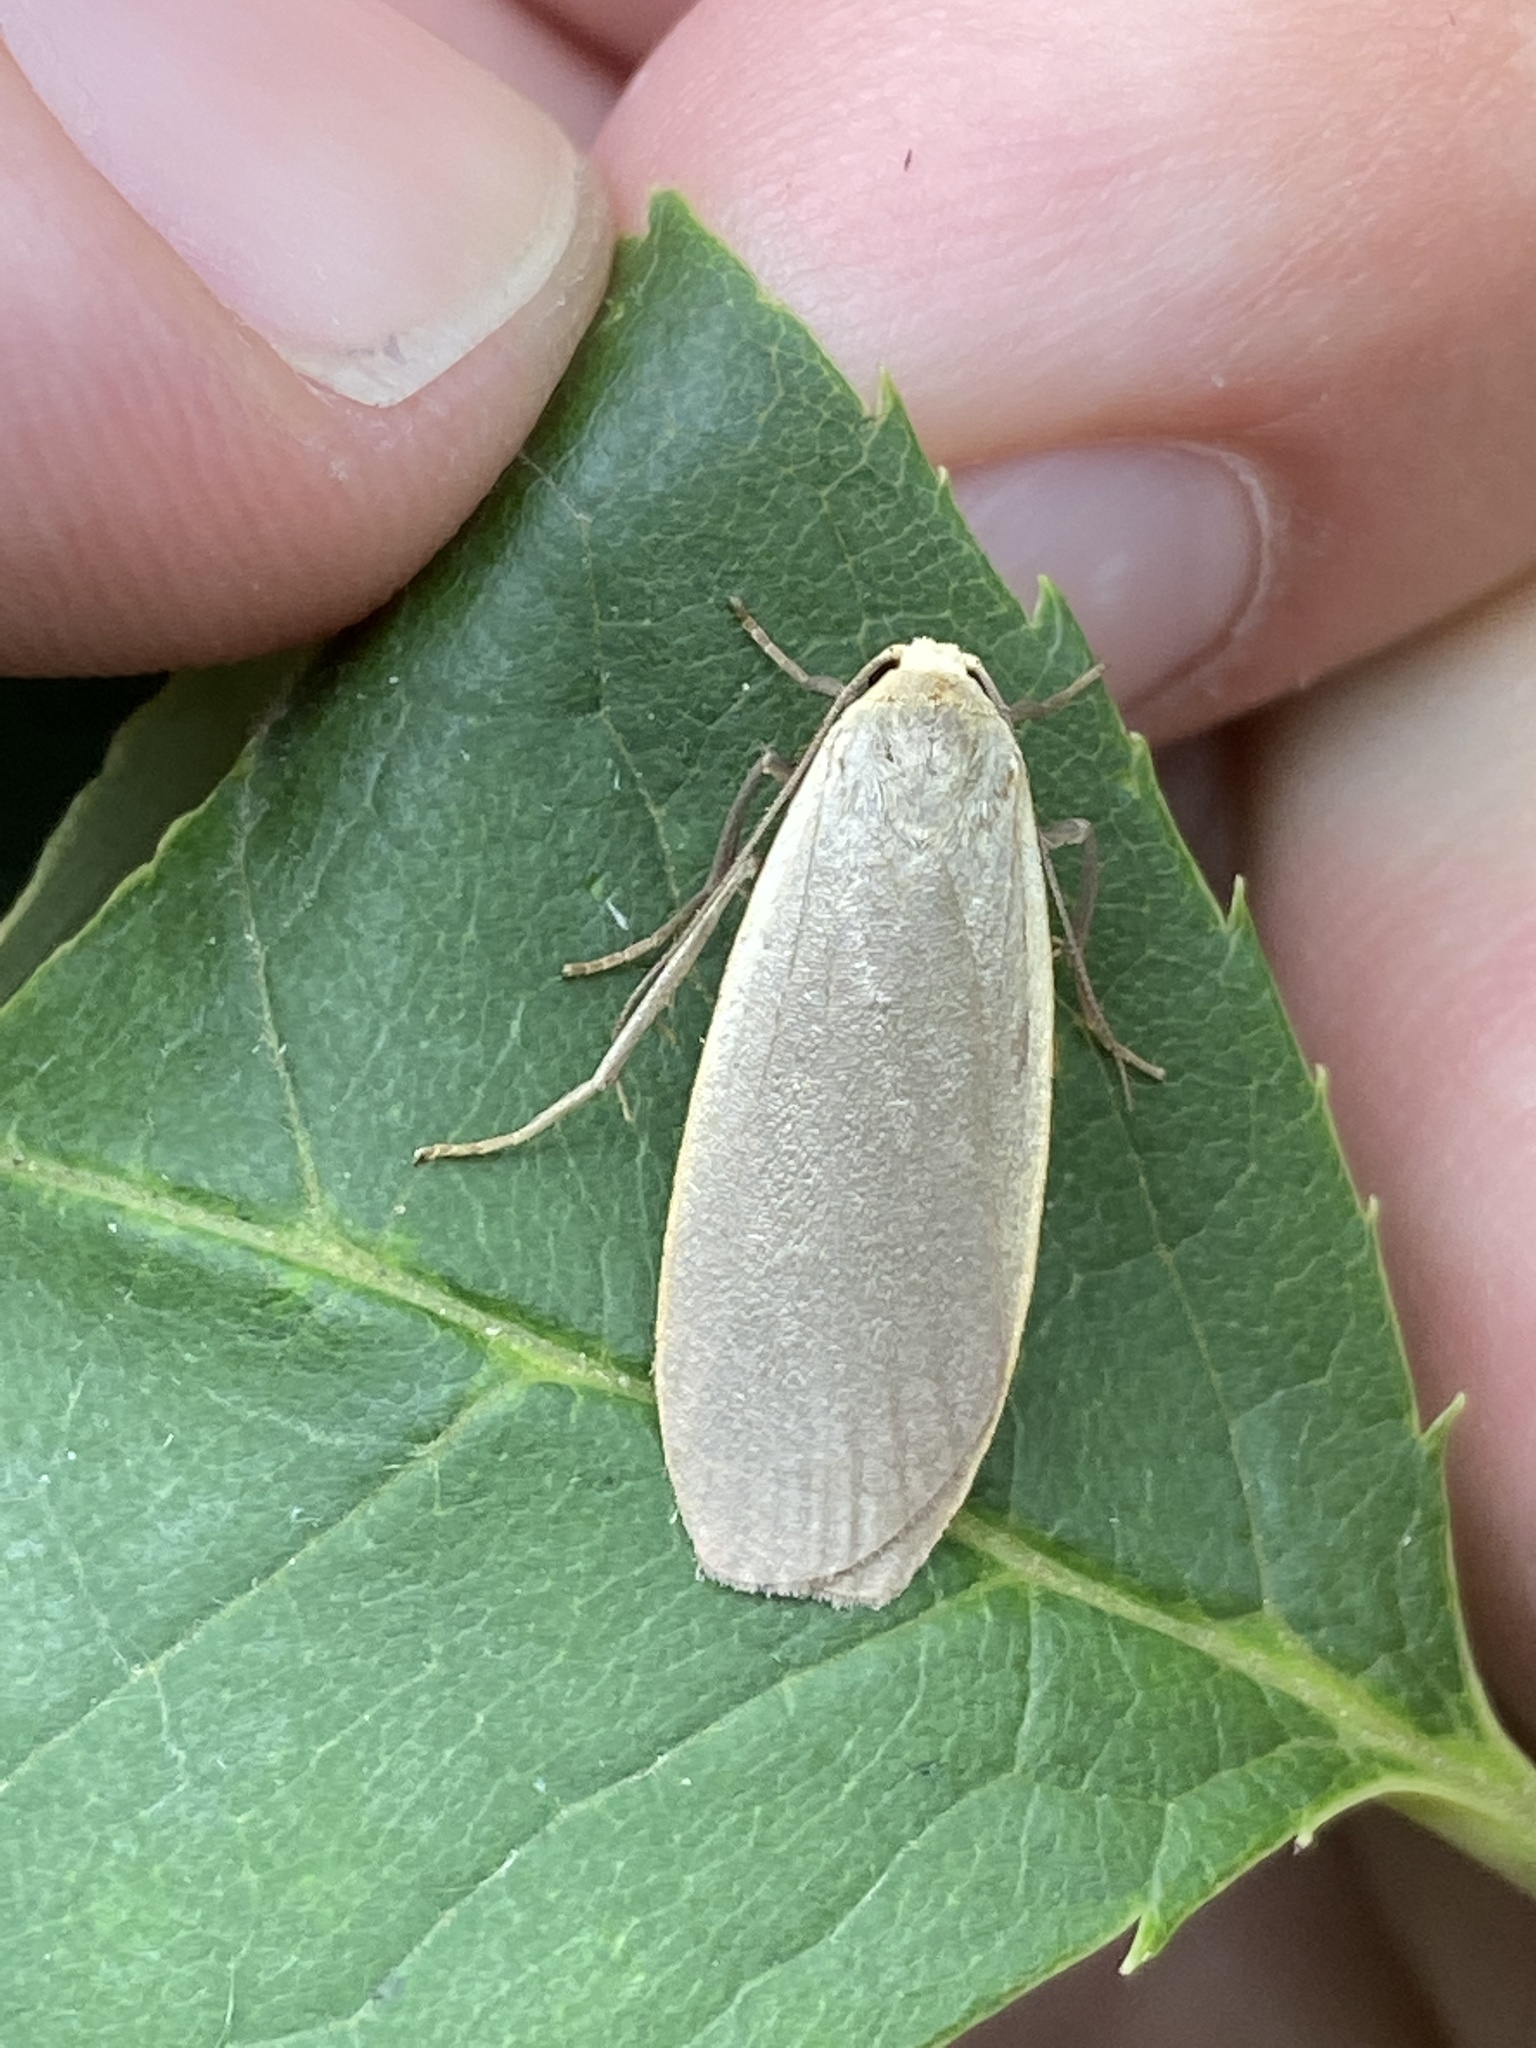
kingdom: Animalia
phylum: Arthropoda
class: Insecta
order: Lepidoptera
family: Erebidae
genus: Collita
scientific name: Collita griseola
